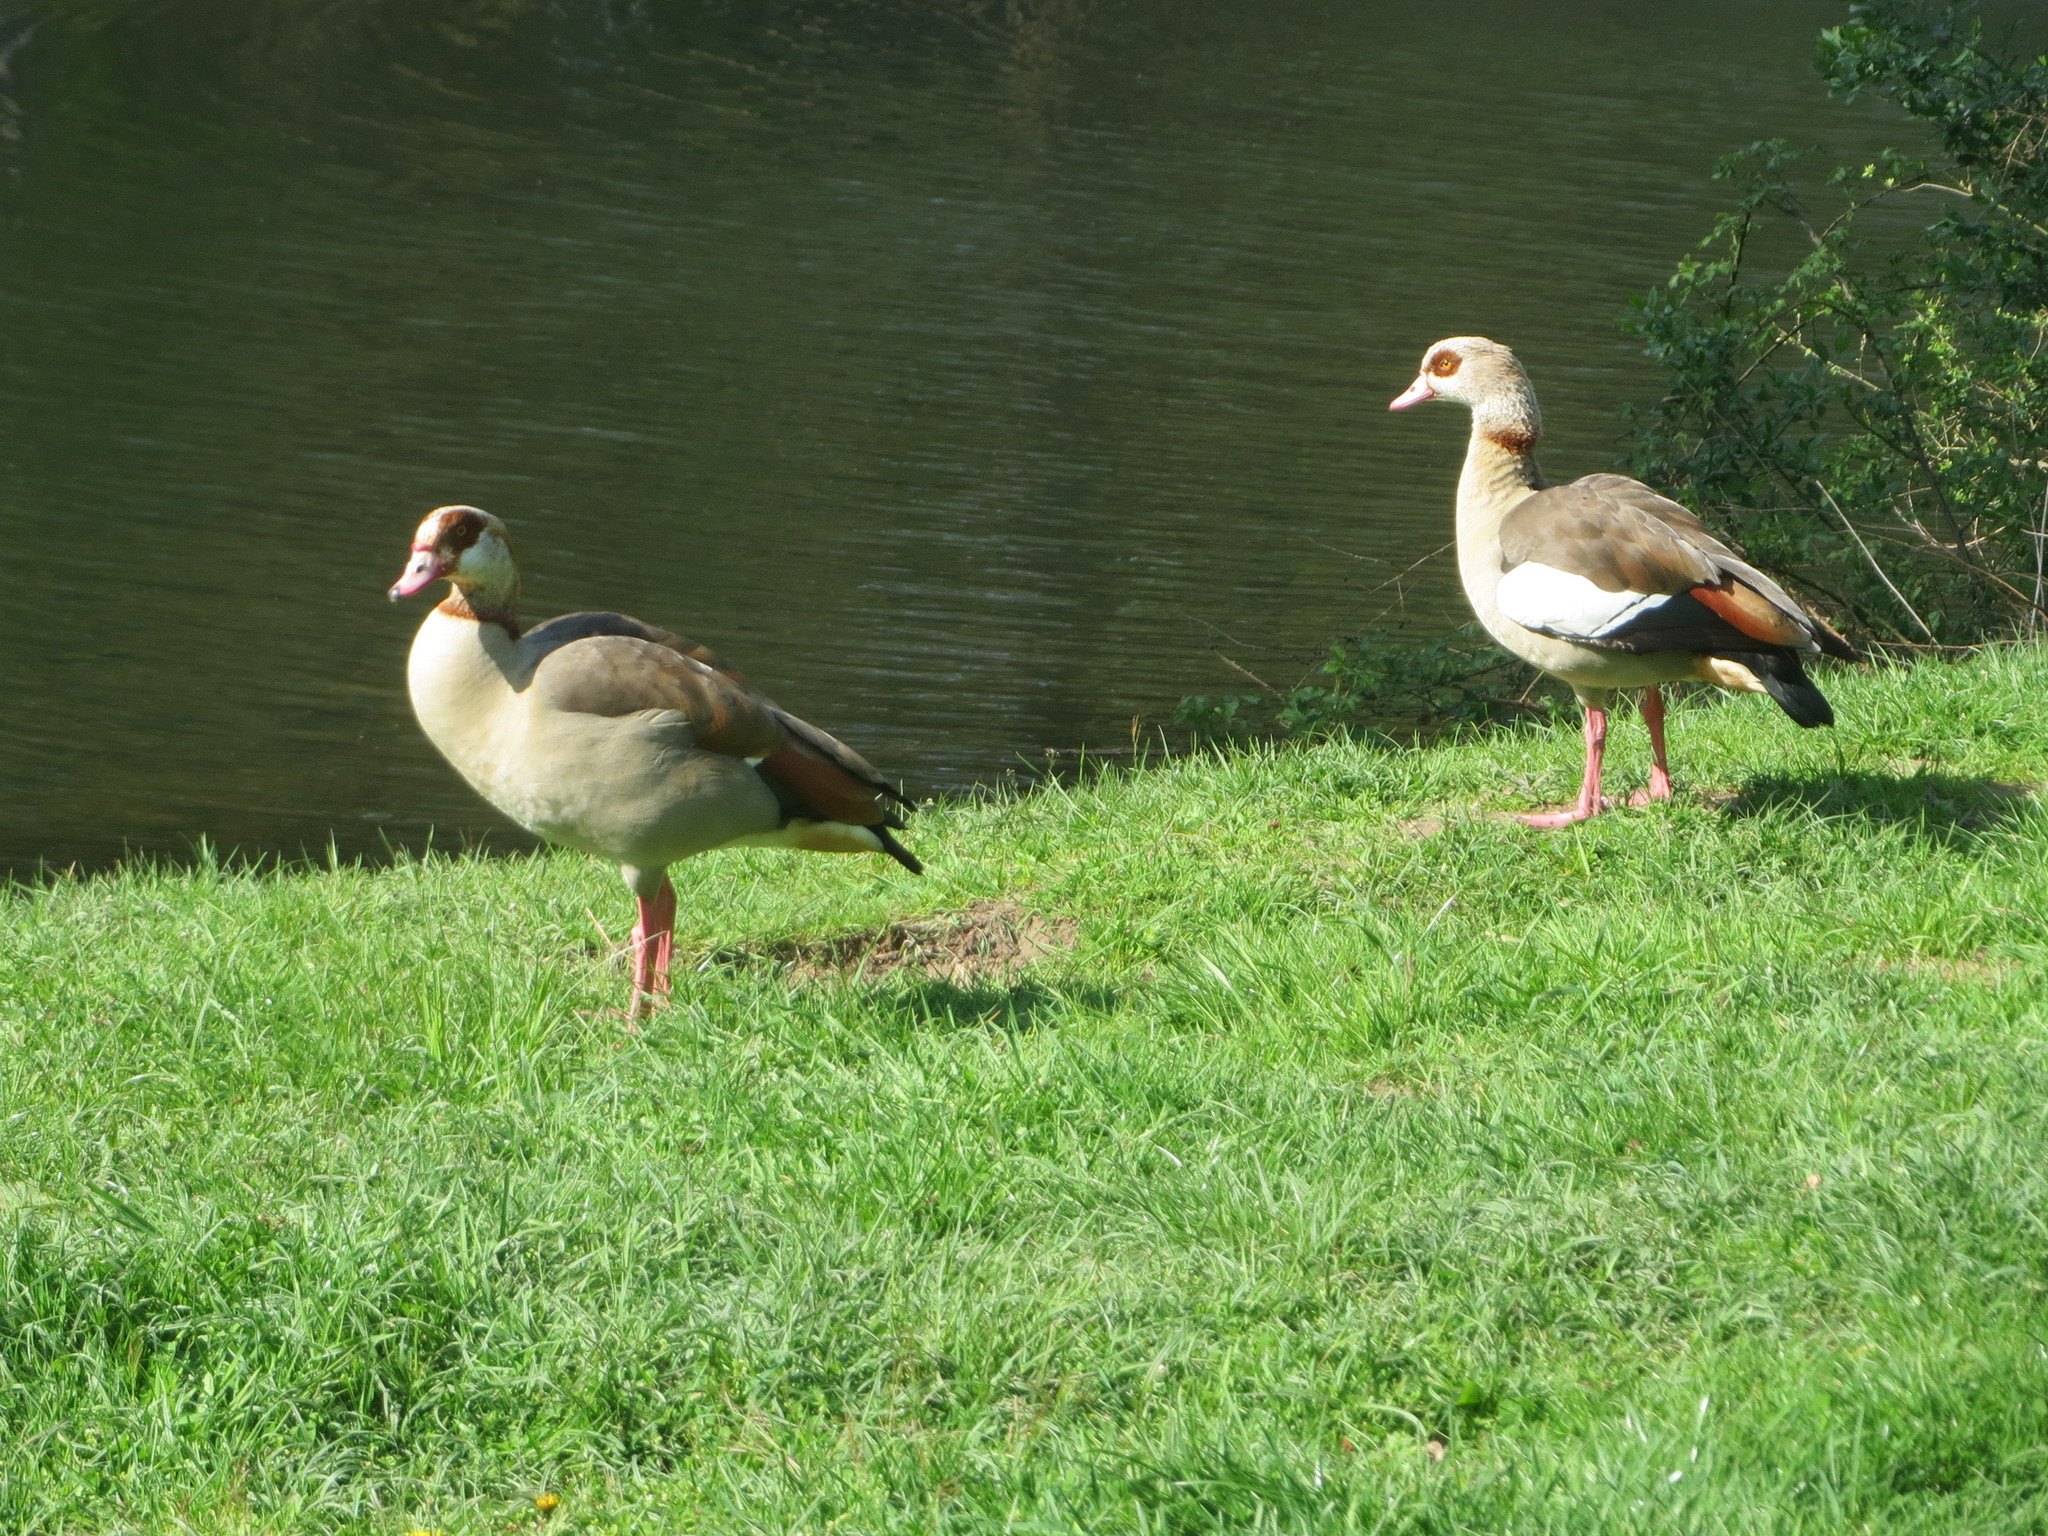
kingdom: Animalia
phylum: Chordata
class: Aves
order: Anseriformes
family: Anatidae
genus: Alopochen
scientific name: Alopochen aegyptiaca
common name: Egyptian goose
